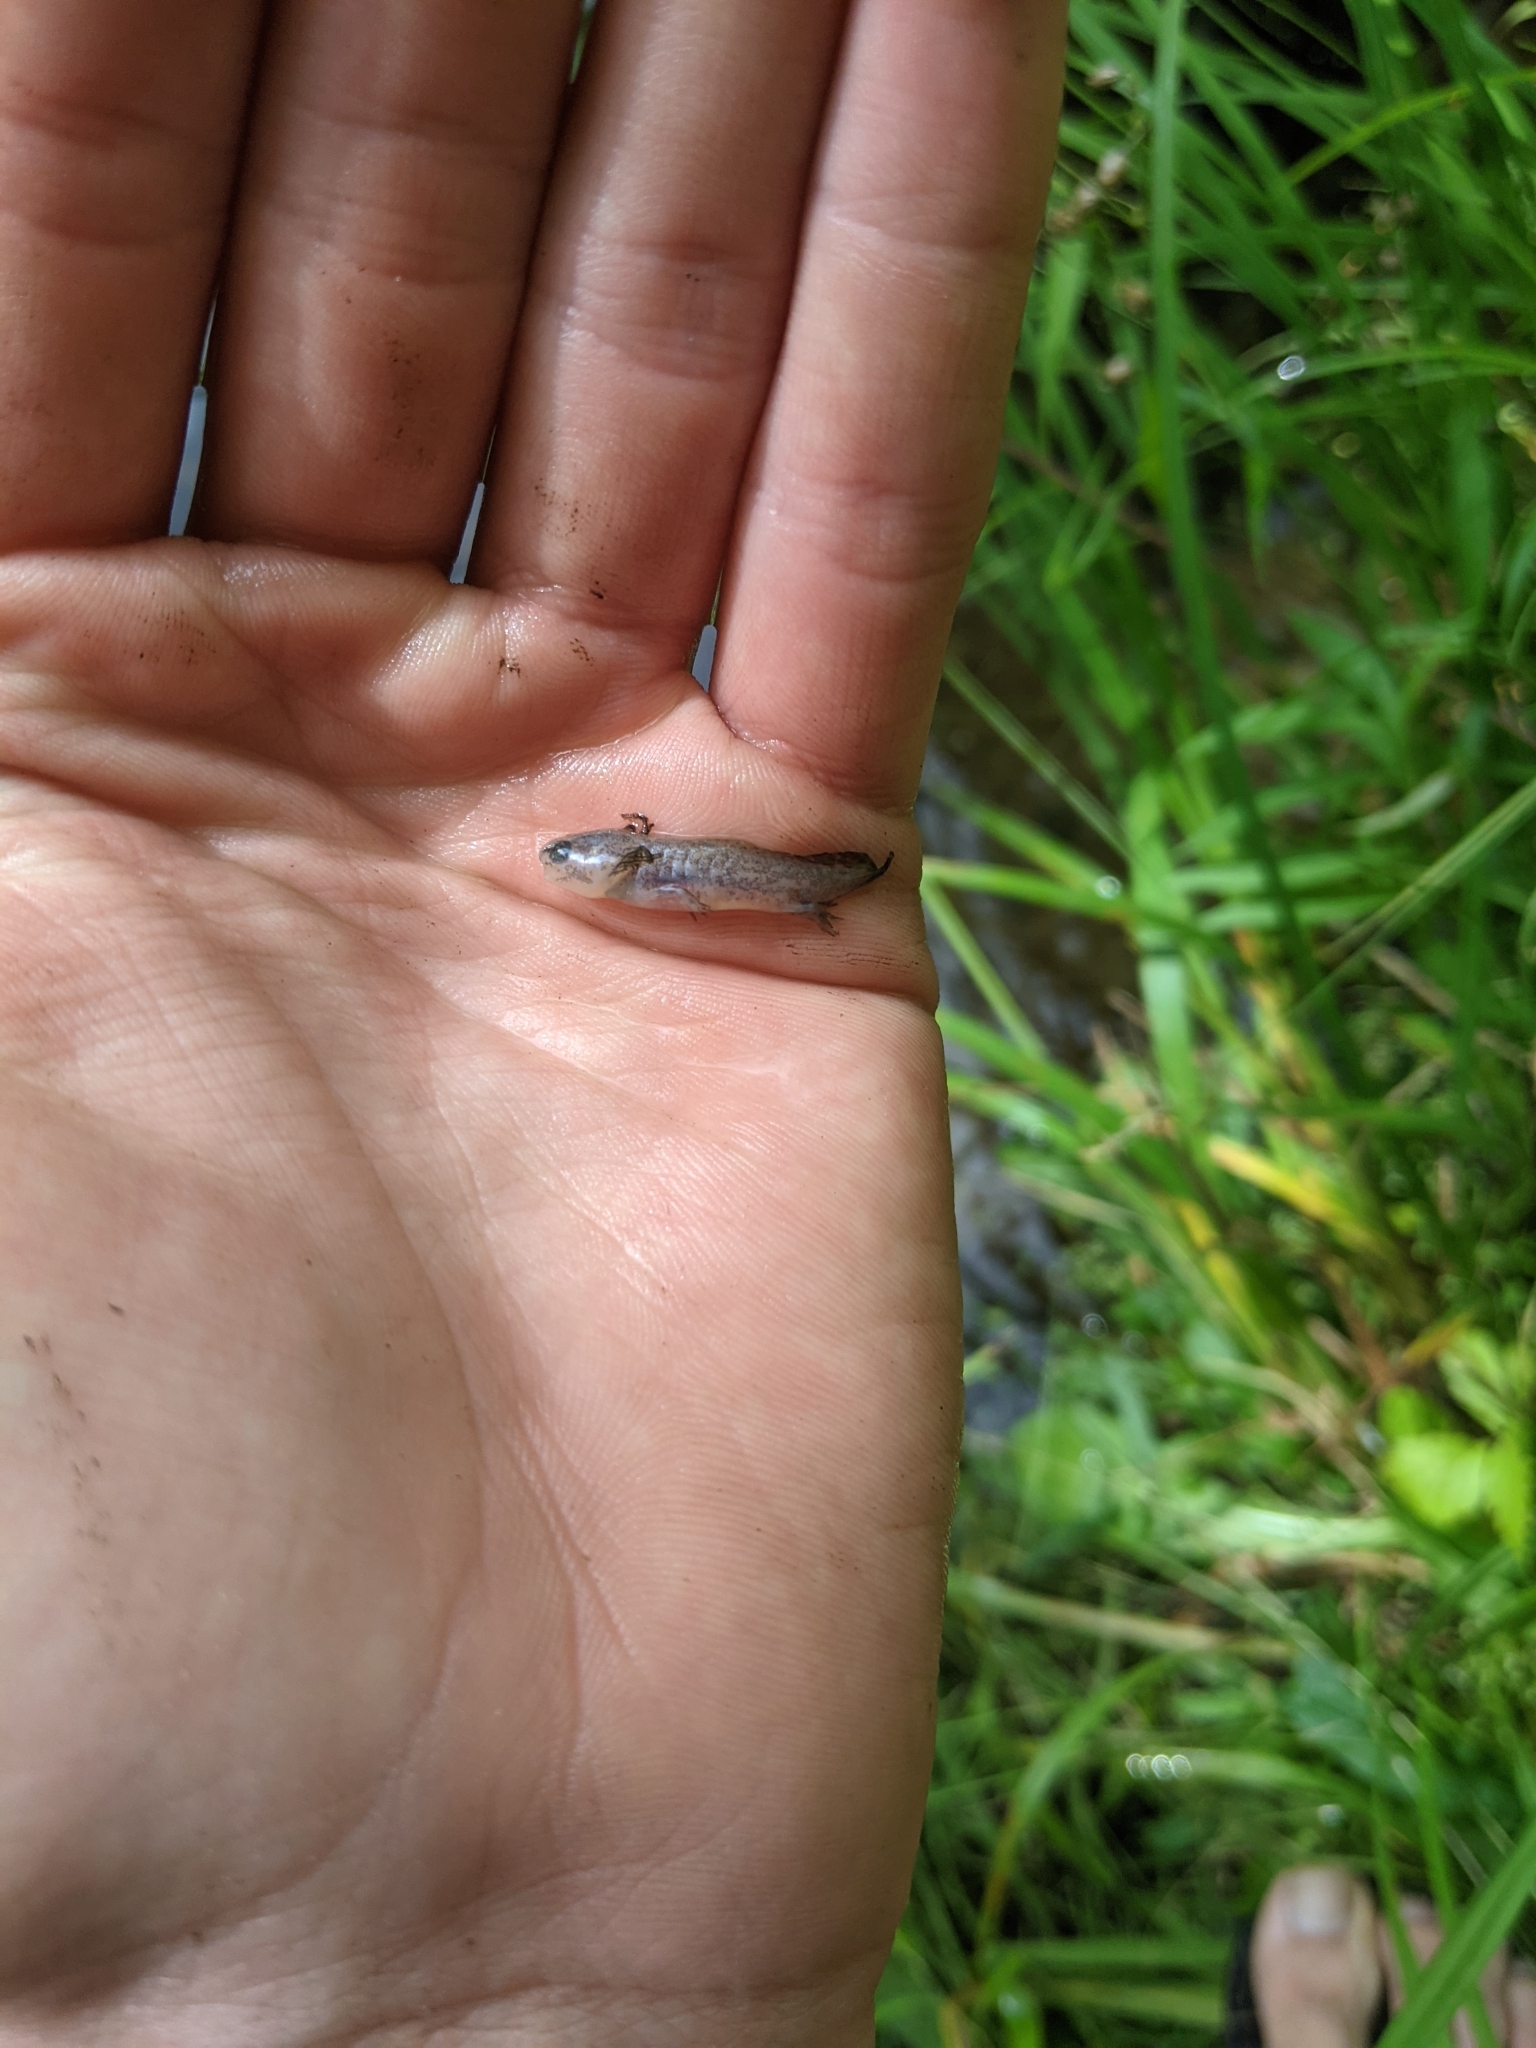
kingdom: Animalia
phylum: Chordata
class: Amphibia
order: Caudata
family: Ambystomatidae
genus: Ambystoma
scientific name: Ambystoma maculatum
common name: Spotted salamander
